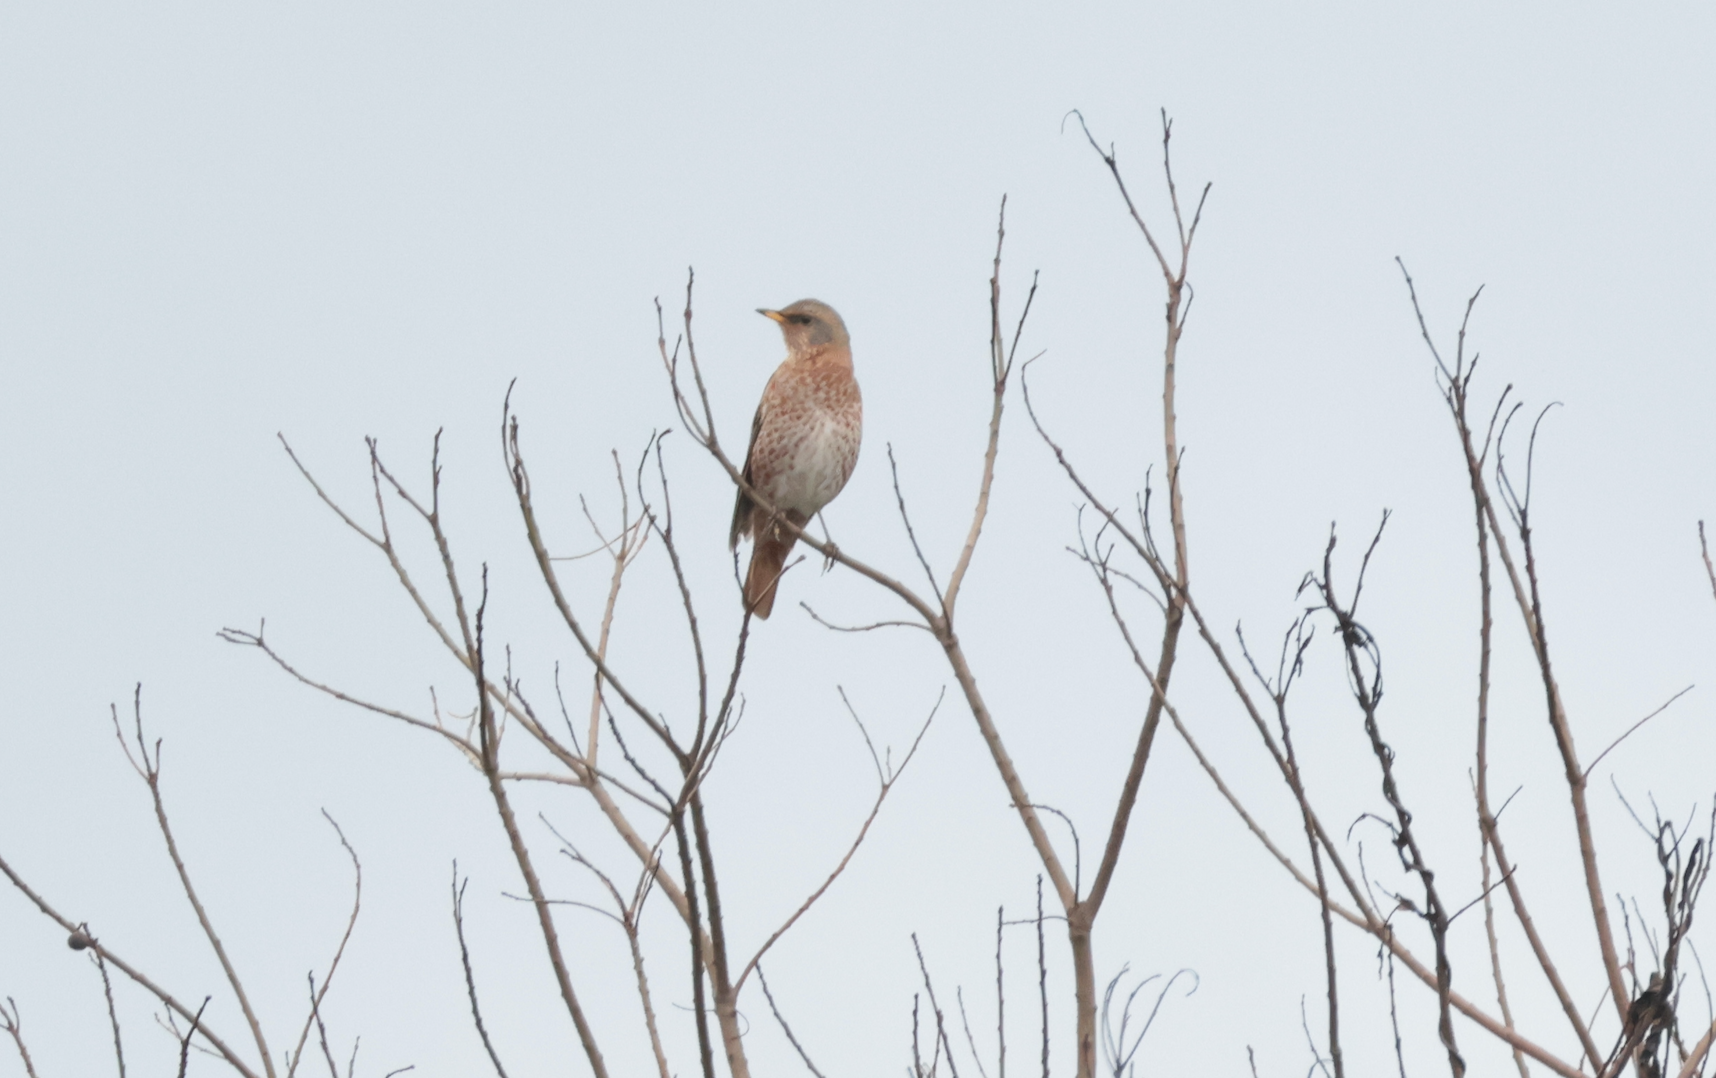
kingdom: Animalia
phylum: Chordata
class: Aves
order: Passeriformes
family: Turdidae
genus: Turdus
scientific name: Turdus naumanni
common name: Naumann's thrush
